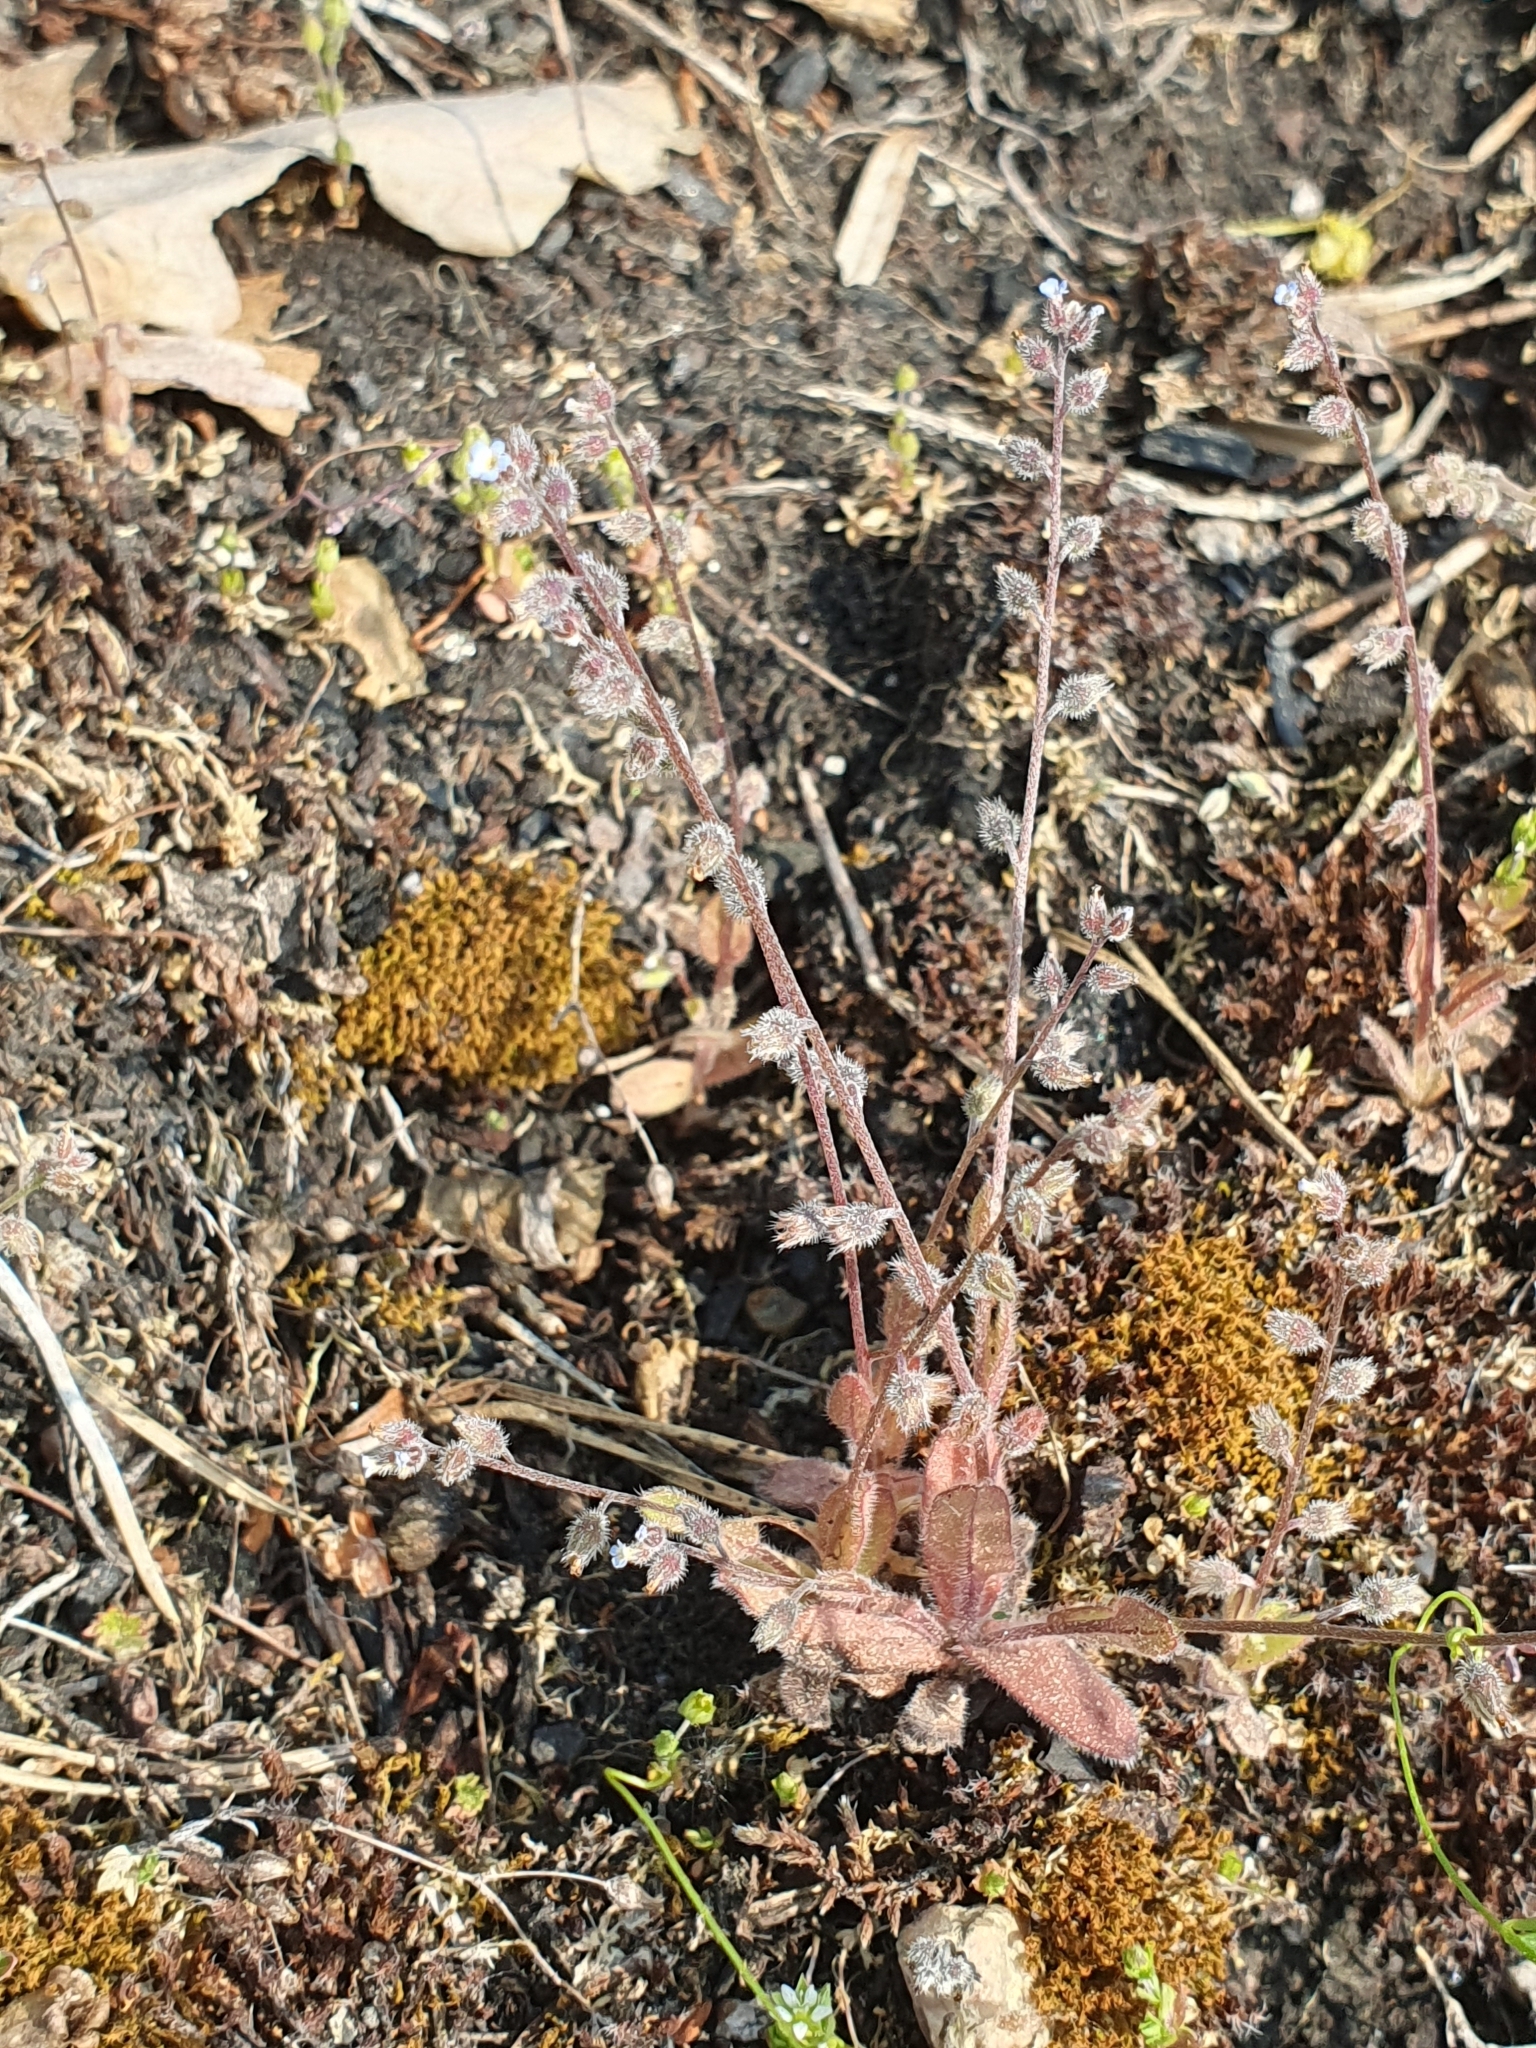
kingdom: Plantae
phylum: Tracheophyta
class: Magnoliopsida
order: Boraginales
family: Boraginaceae
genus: Myosotis
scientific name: Myosotis ramosissima
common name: Early forget-me-not
